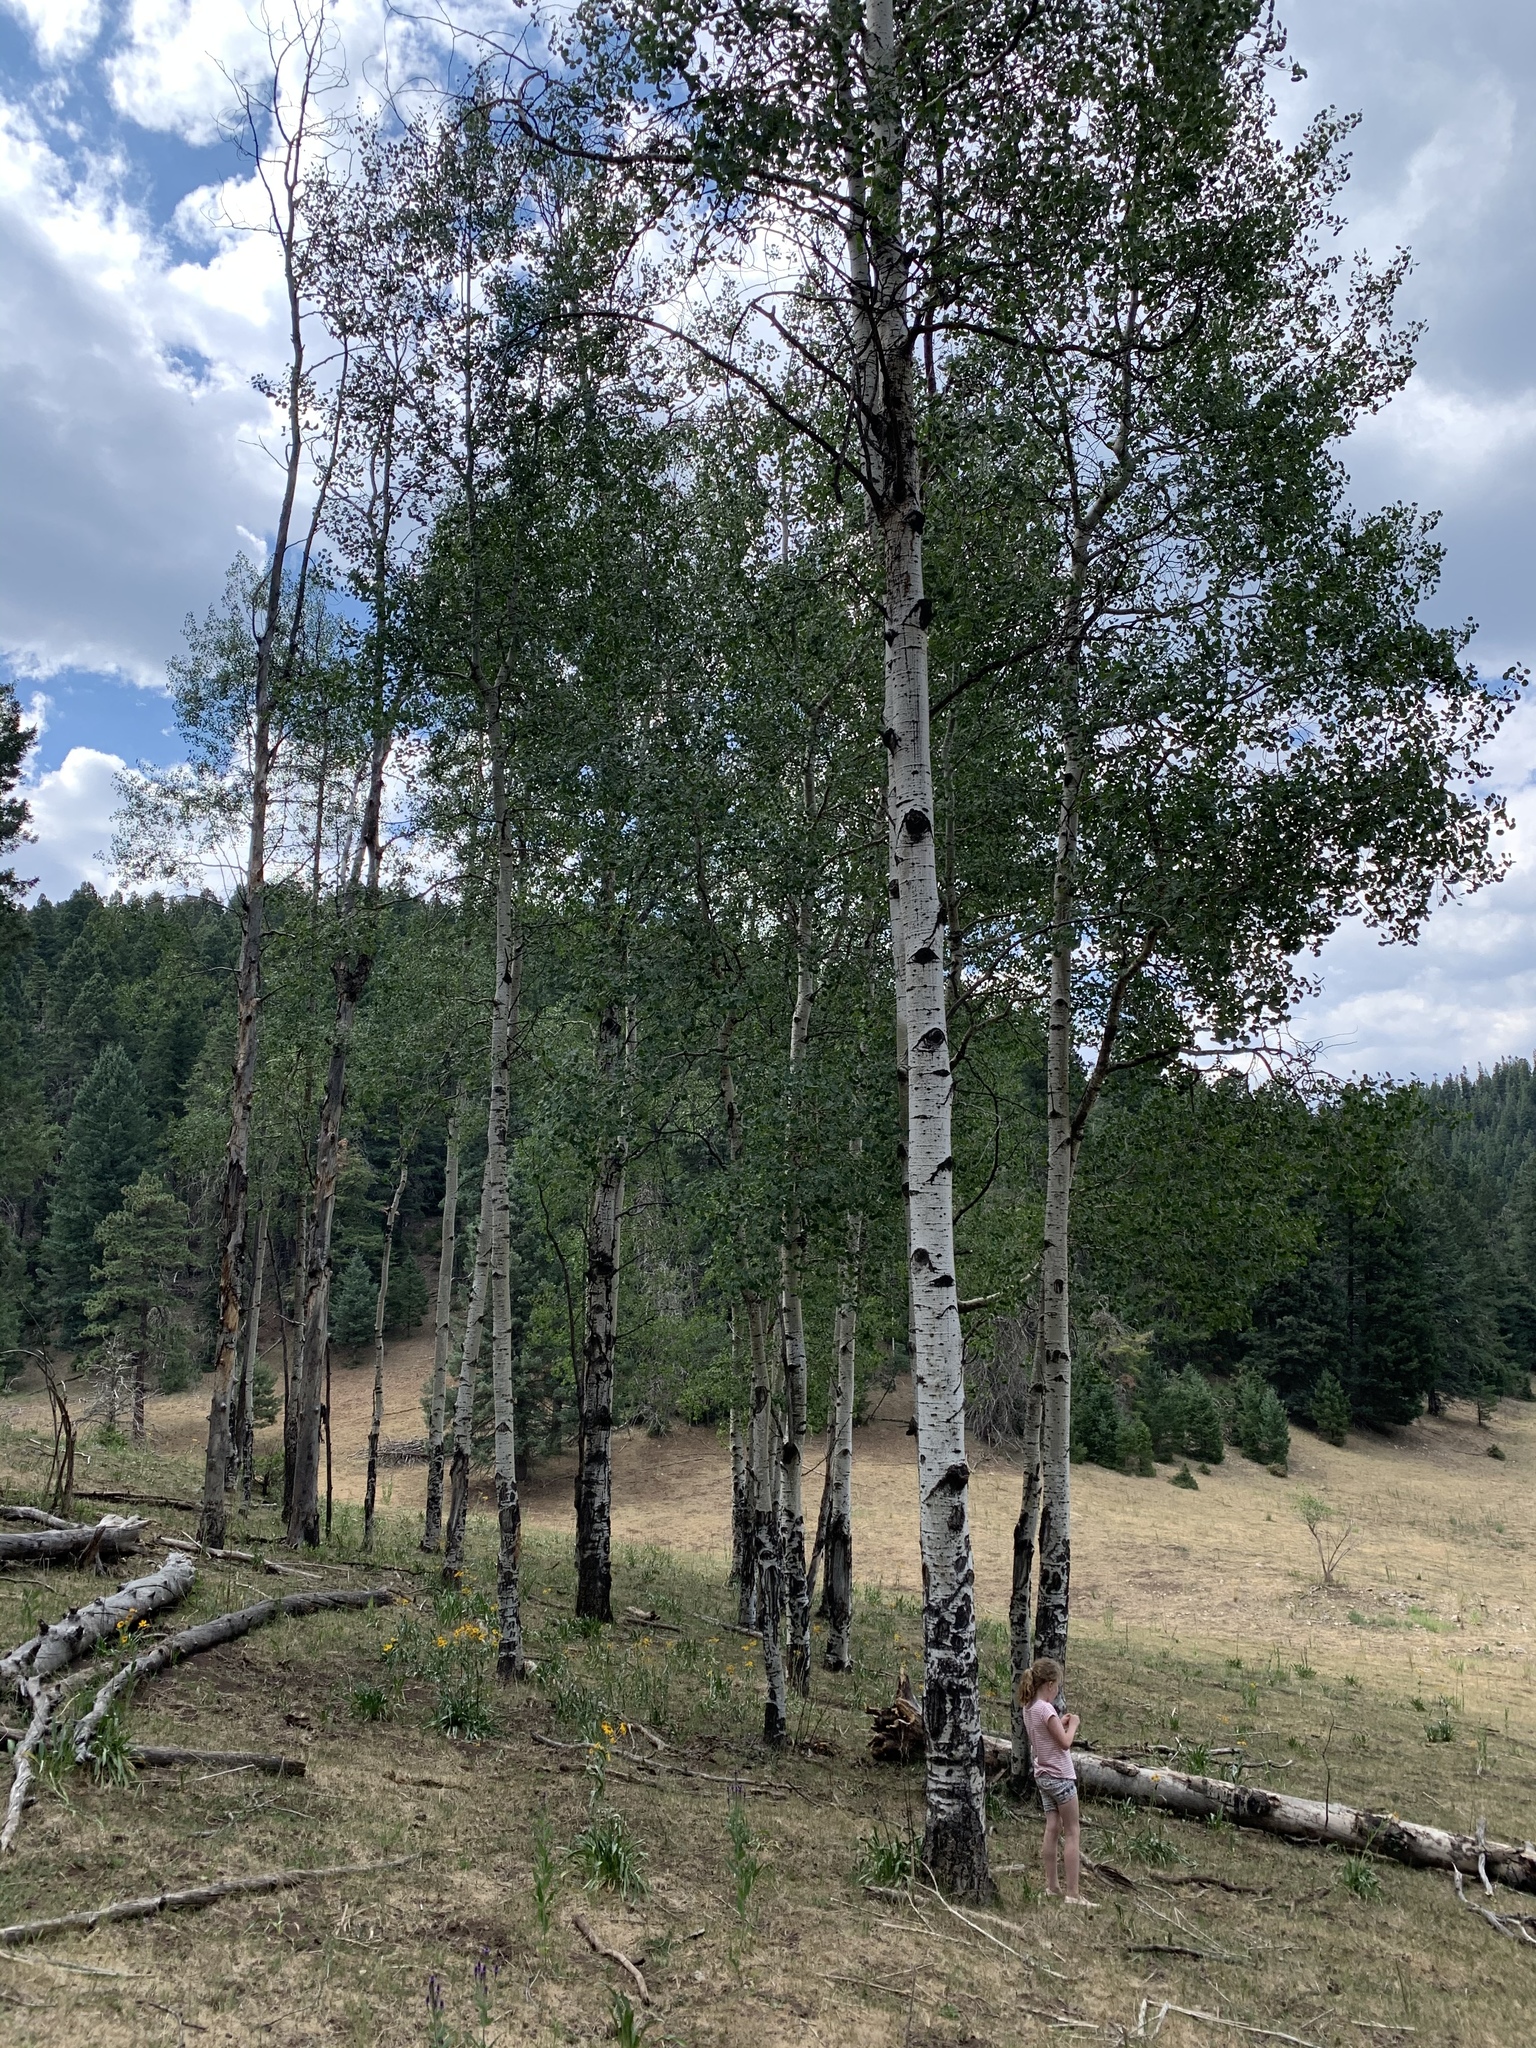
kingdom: Plantae
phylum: Tracheophyta
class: Magnoliopsida
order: Malpighiales
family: Salicaceae
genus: Populus
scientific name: Populus tremuloides
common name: Quaking aspen
